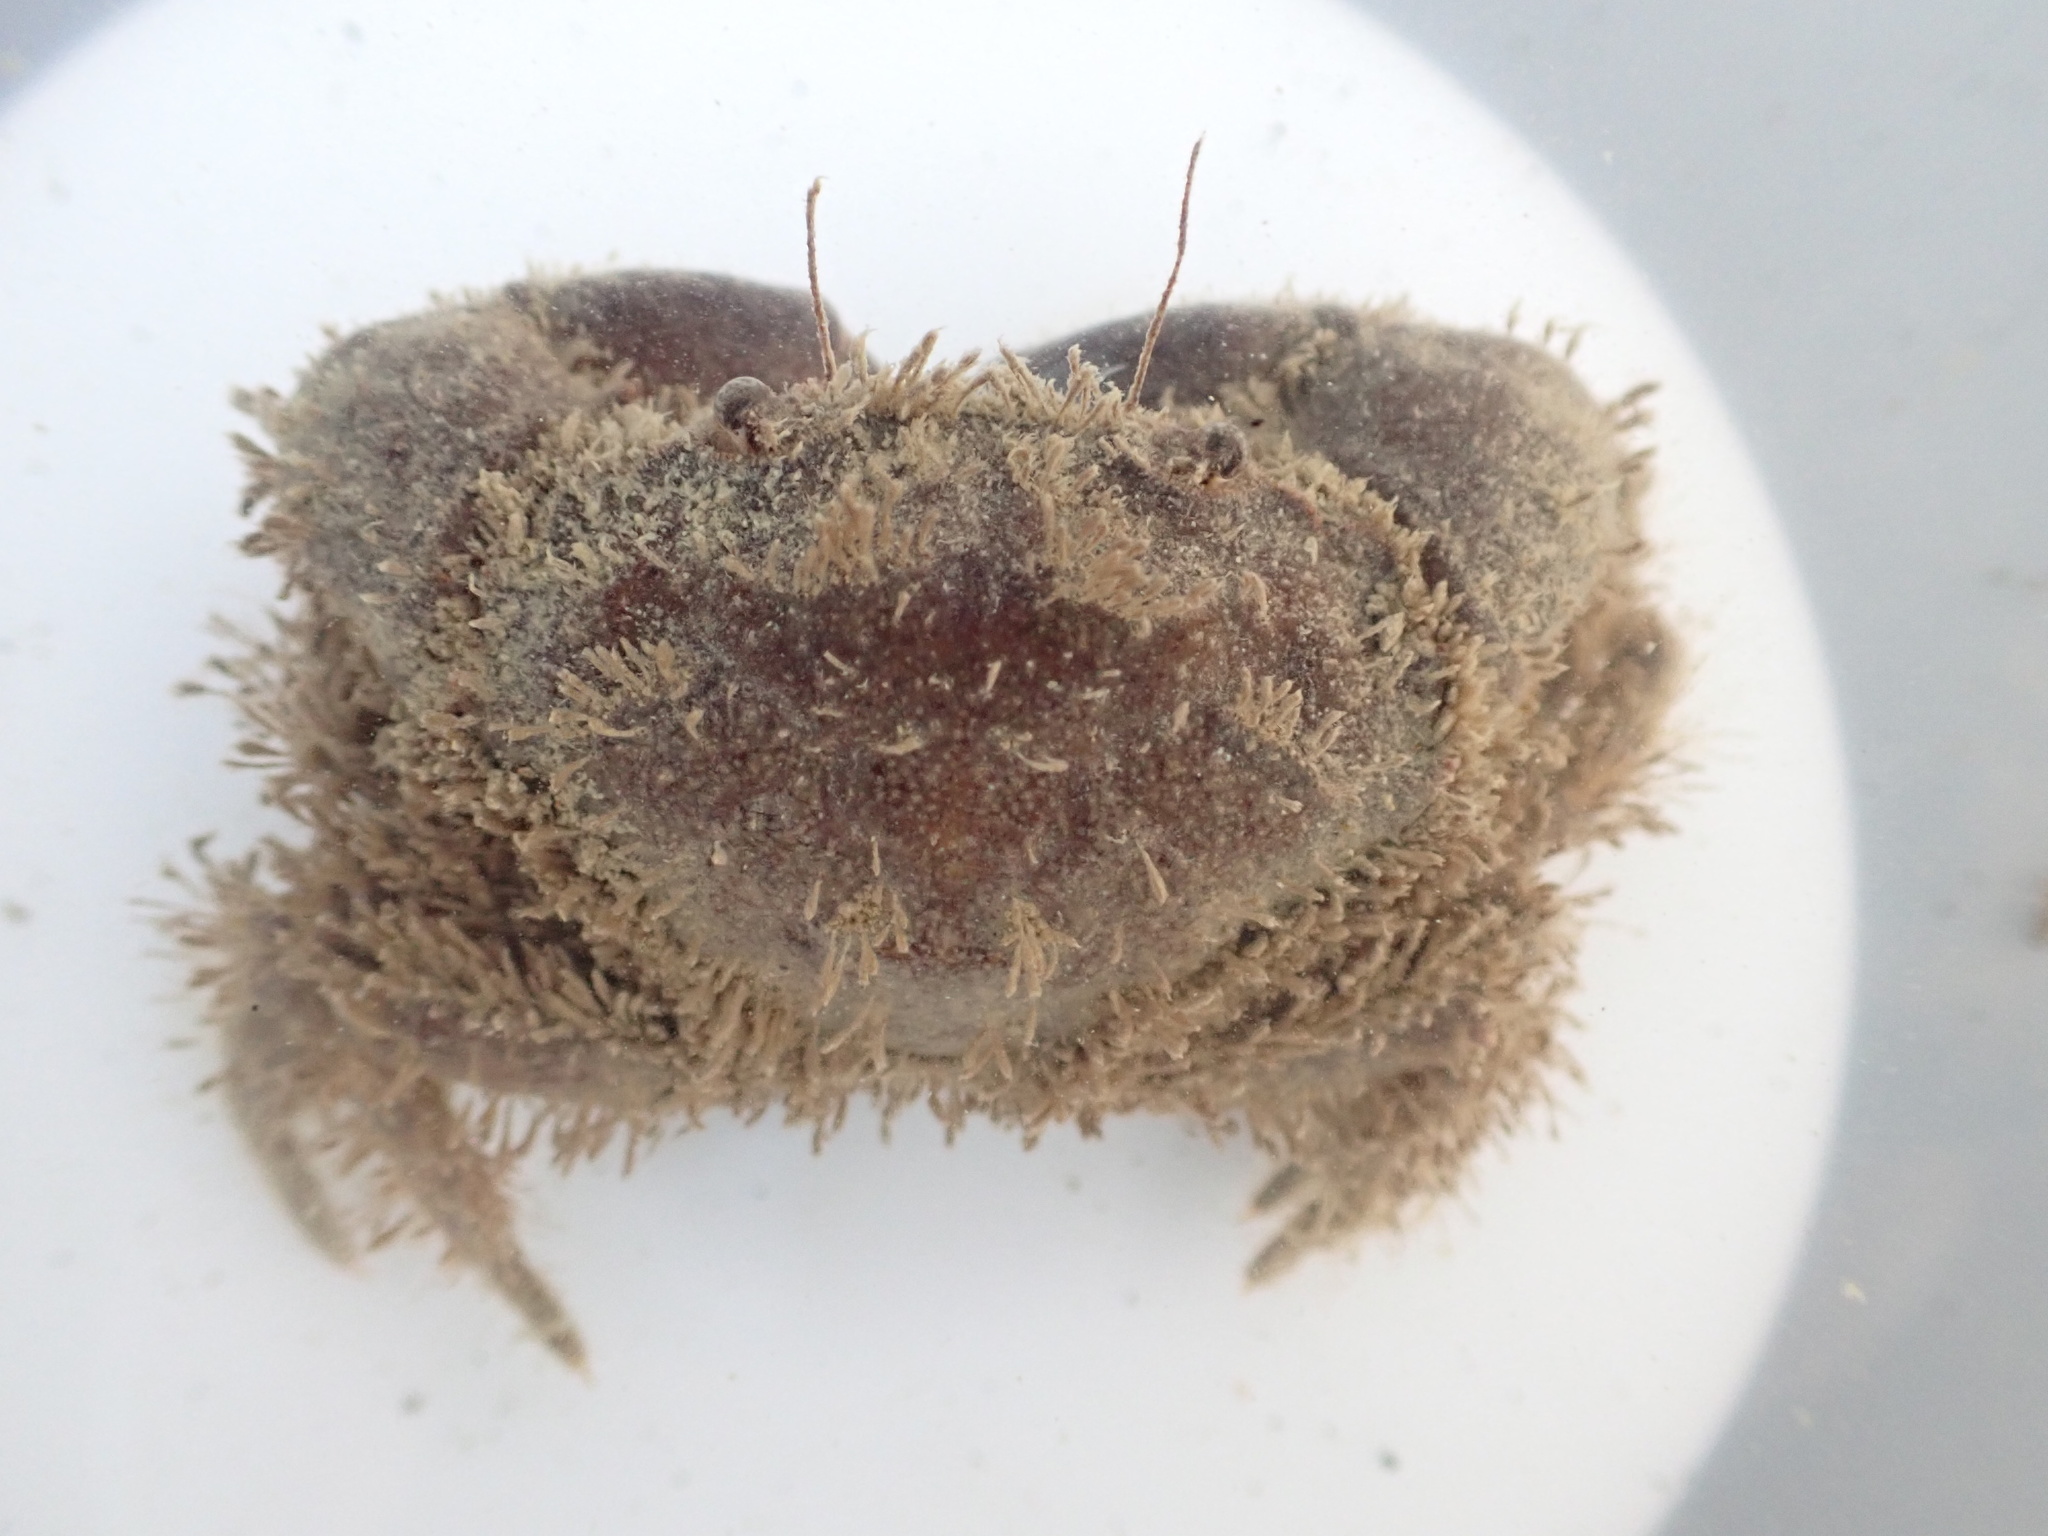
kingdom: Animalia
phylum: Arthropoda
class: Malacostraca
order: Decapoda
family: Pilumnidae
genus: Pilumnopeus
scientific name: Pilumnopeus serratifrons
